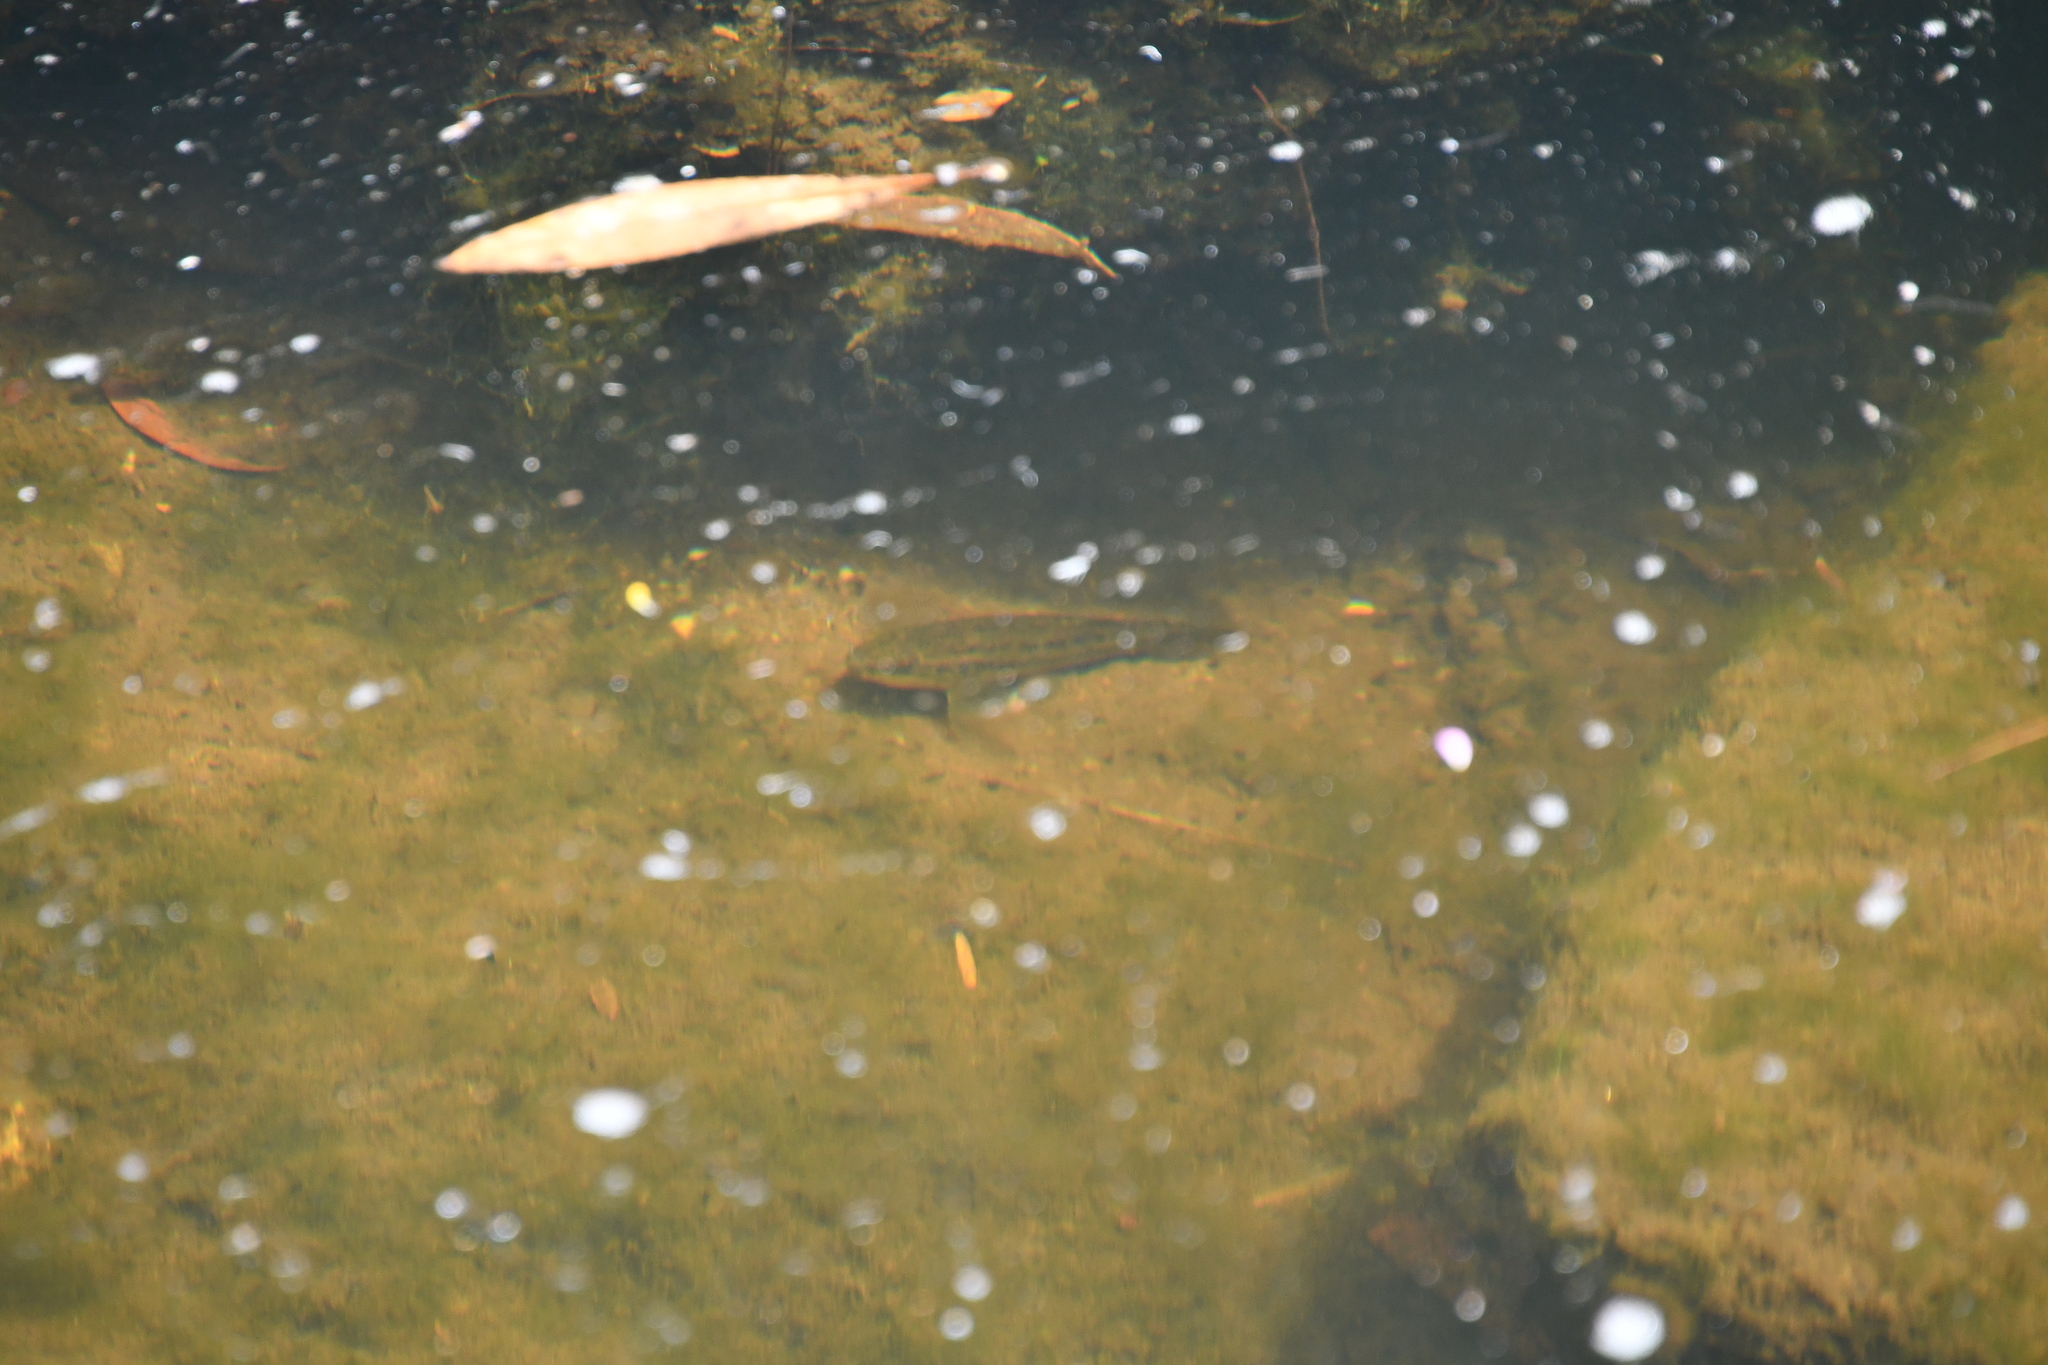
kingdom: Animalia
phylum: Chordata
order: Perciformes
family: Eleotridae
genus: Gobiomorphus
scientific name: Gobiomorphus coxii
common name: Cox's gudgeon
